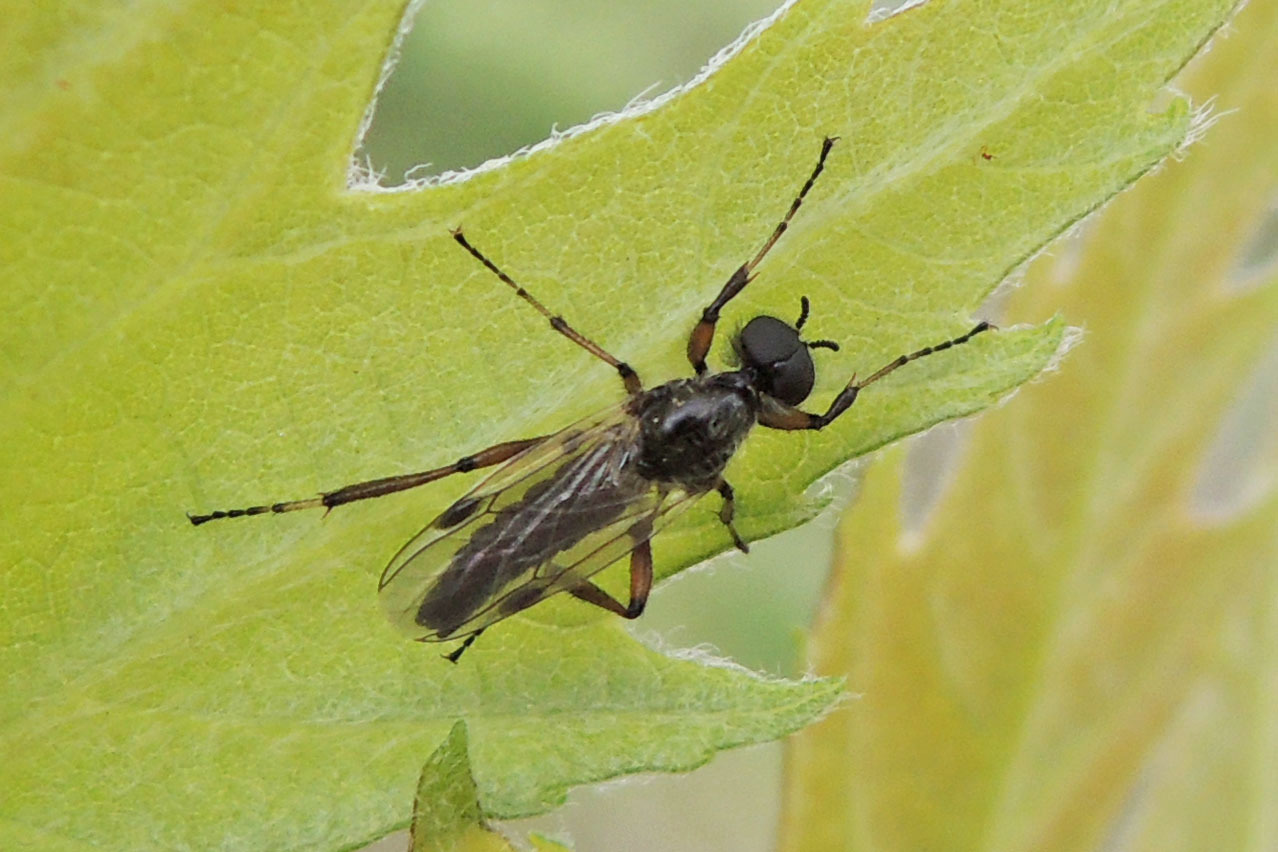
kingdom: Animalia
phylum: Arthropoda
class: Insecta
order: Diptera
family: Bibionidae
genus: Bibio
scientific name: Bibio articulatus
